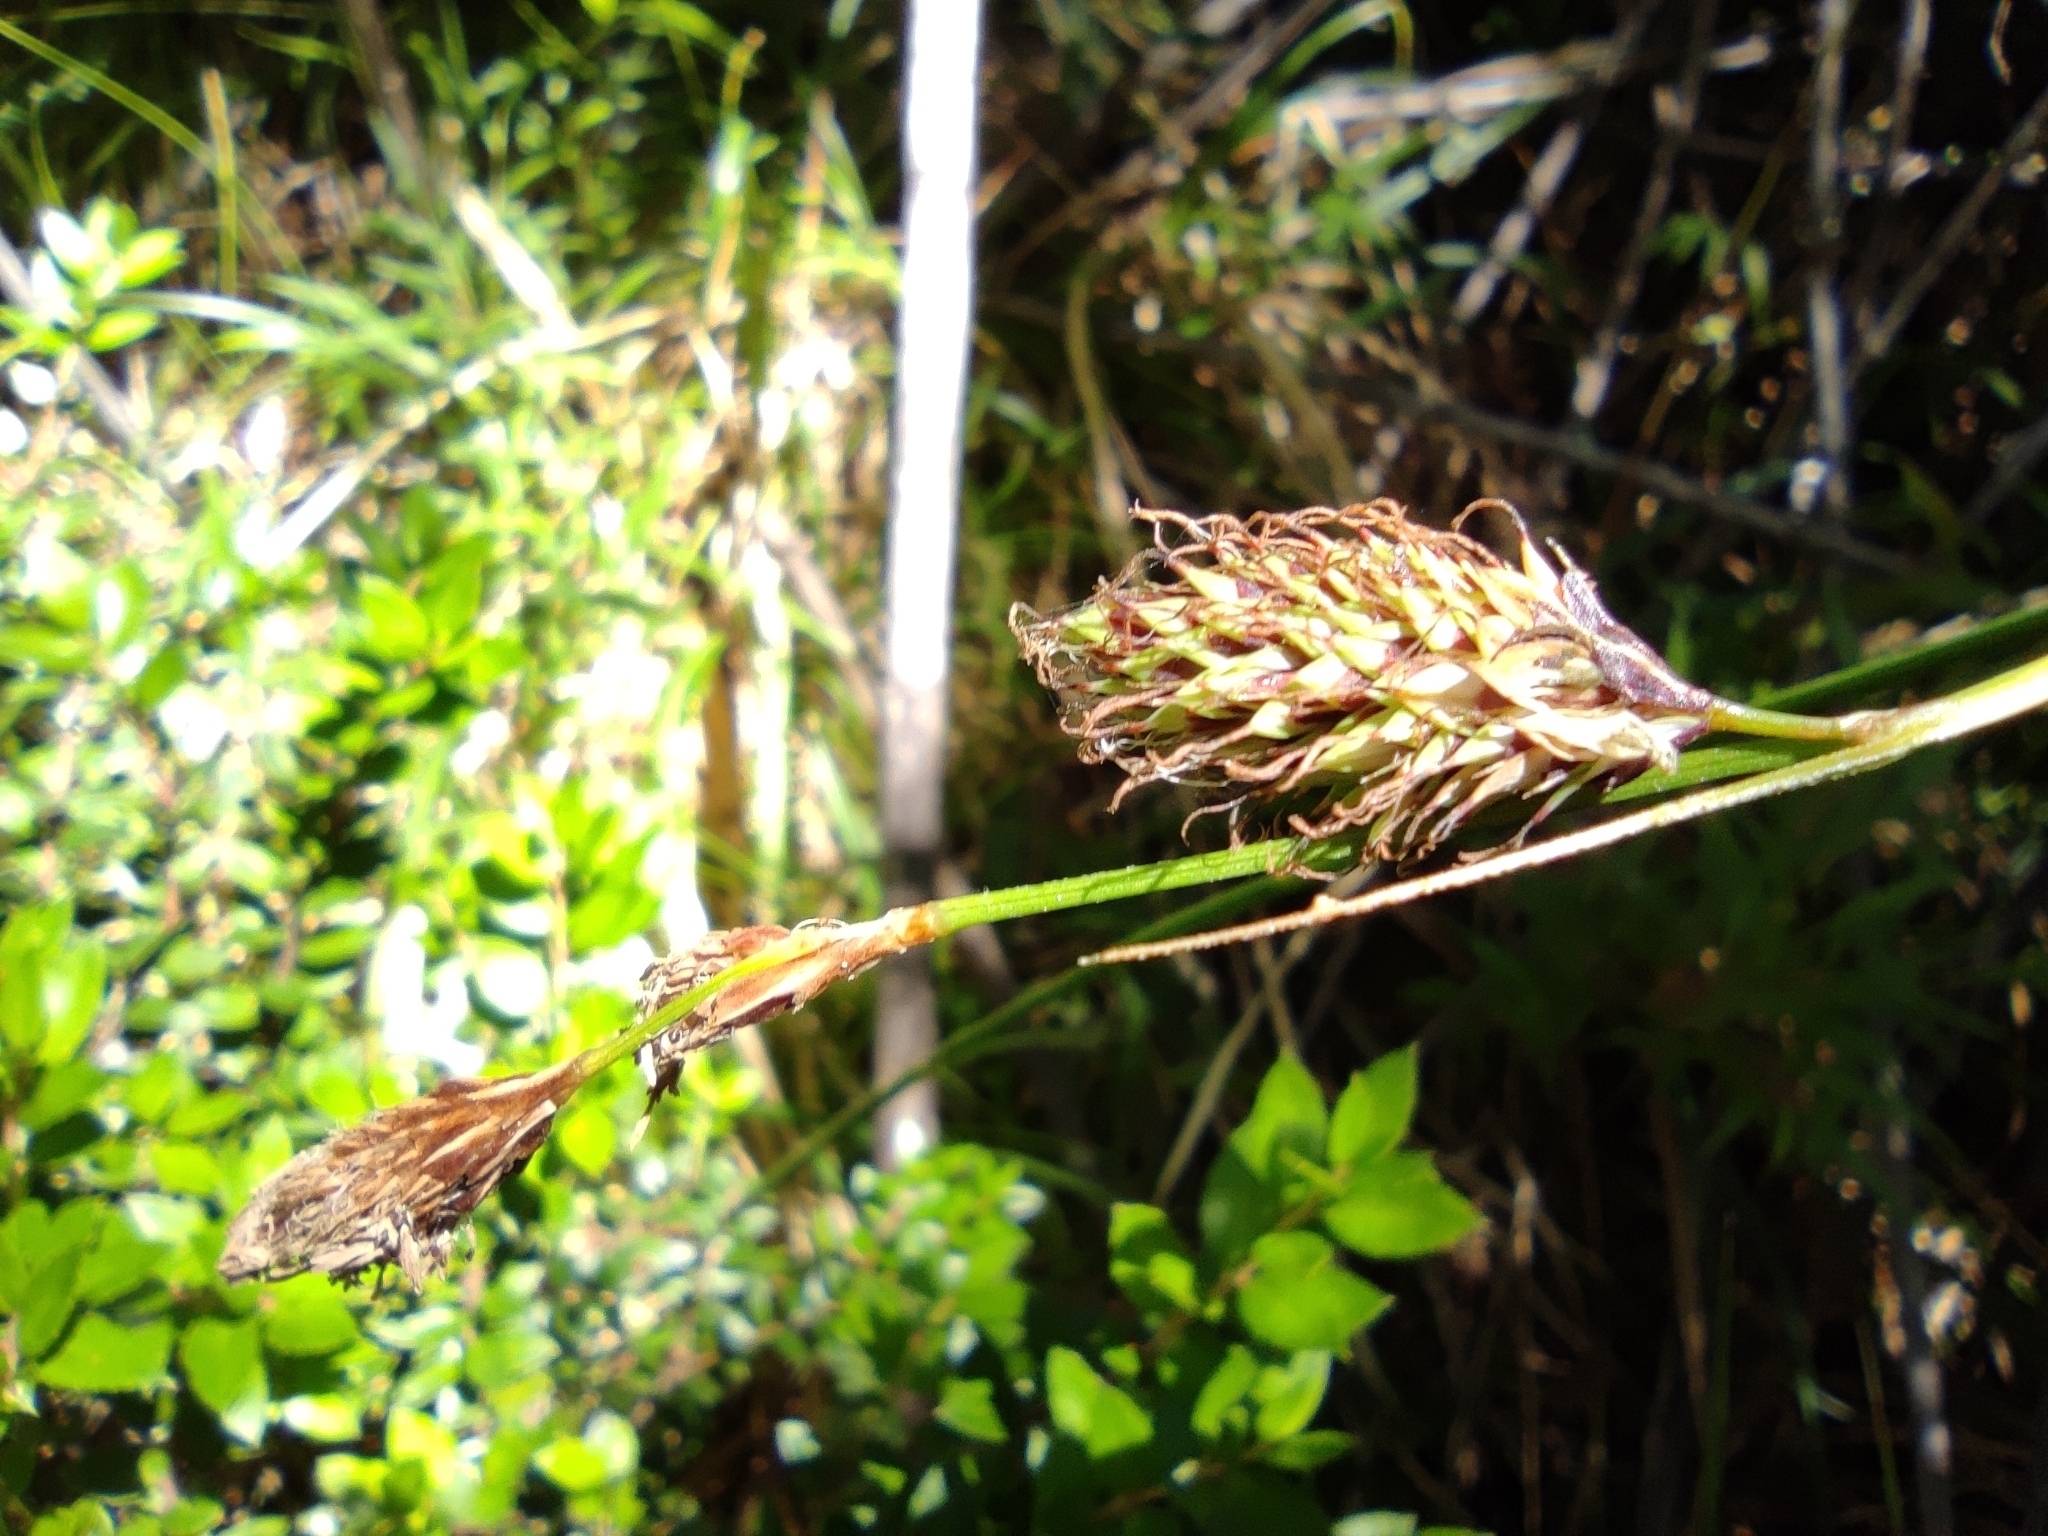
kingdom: Plantae
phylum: Tracheophyta
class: Liliopsida
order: Poales
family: Cyperaceae
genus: Carex
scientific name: Carex banksii
